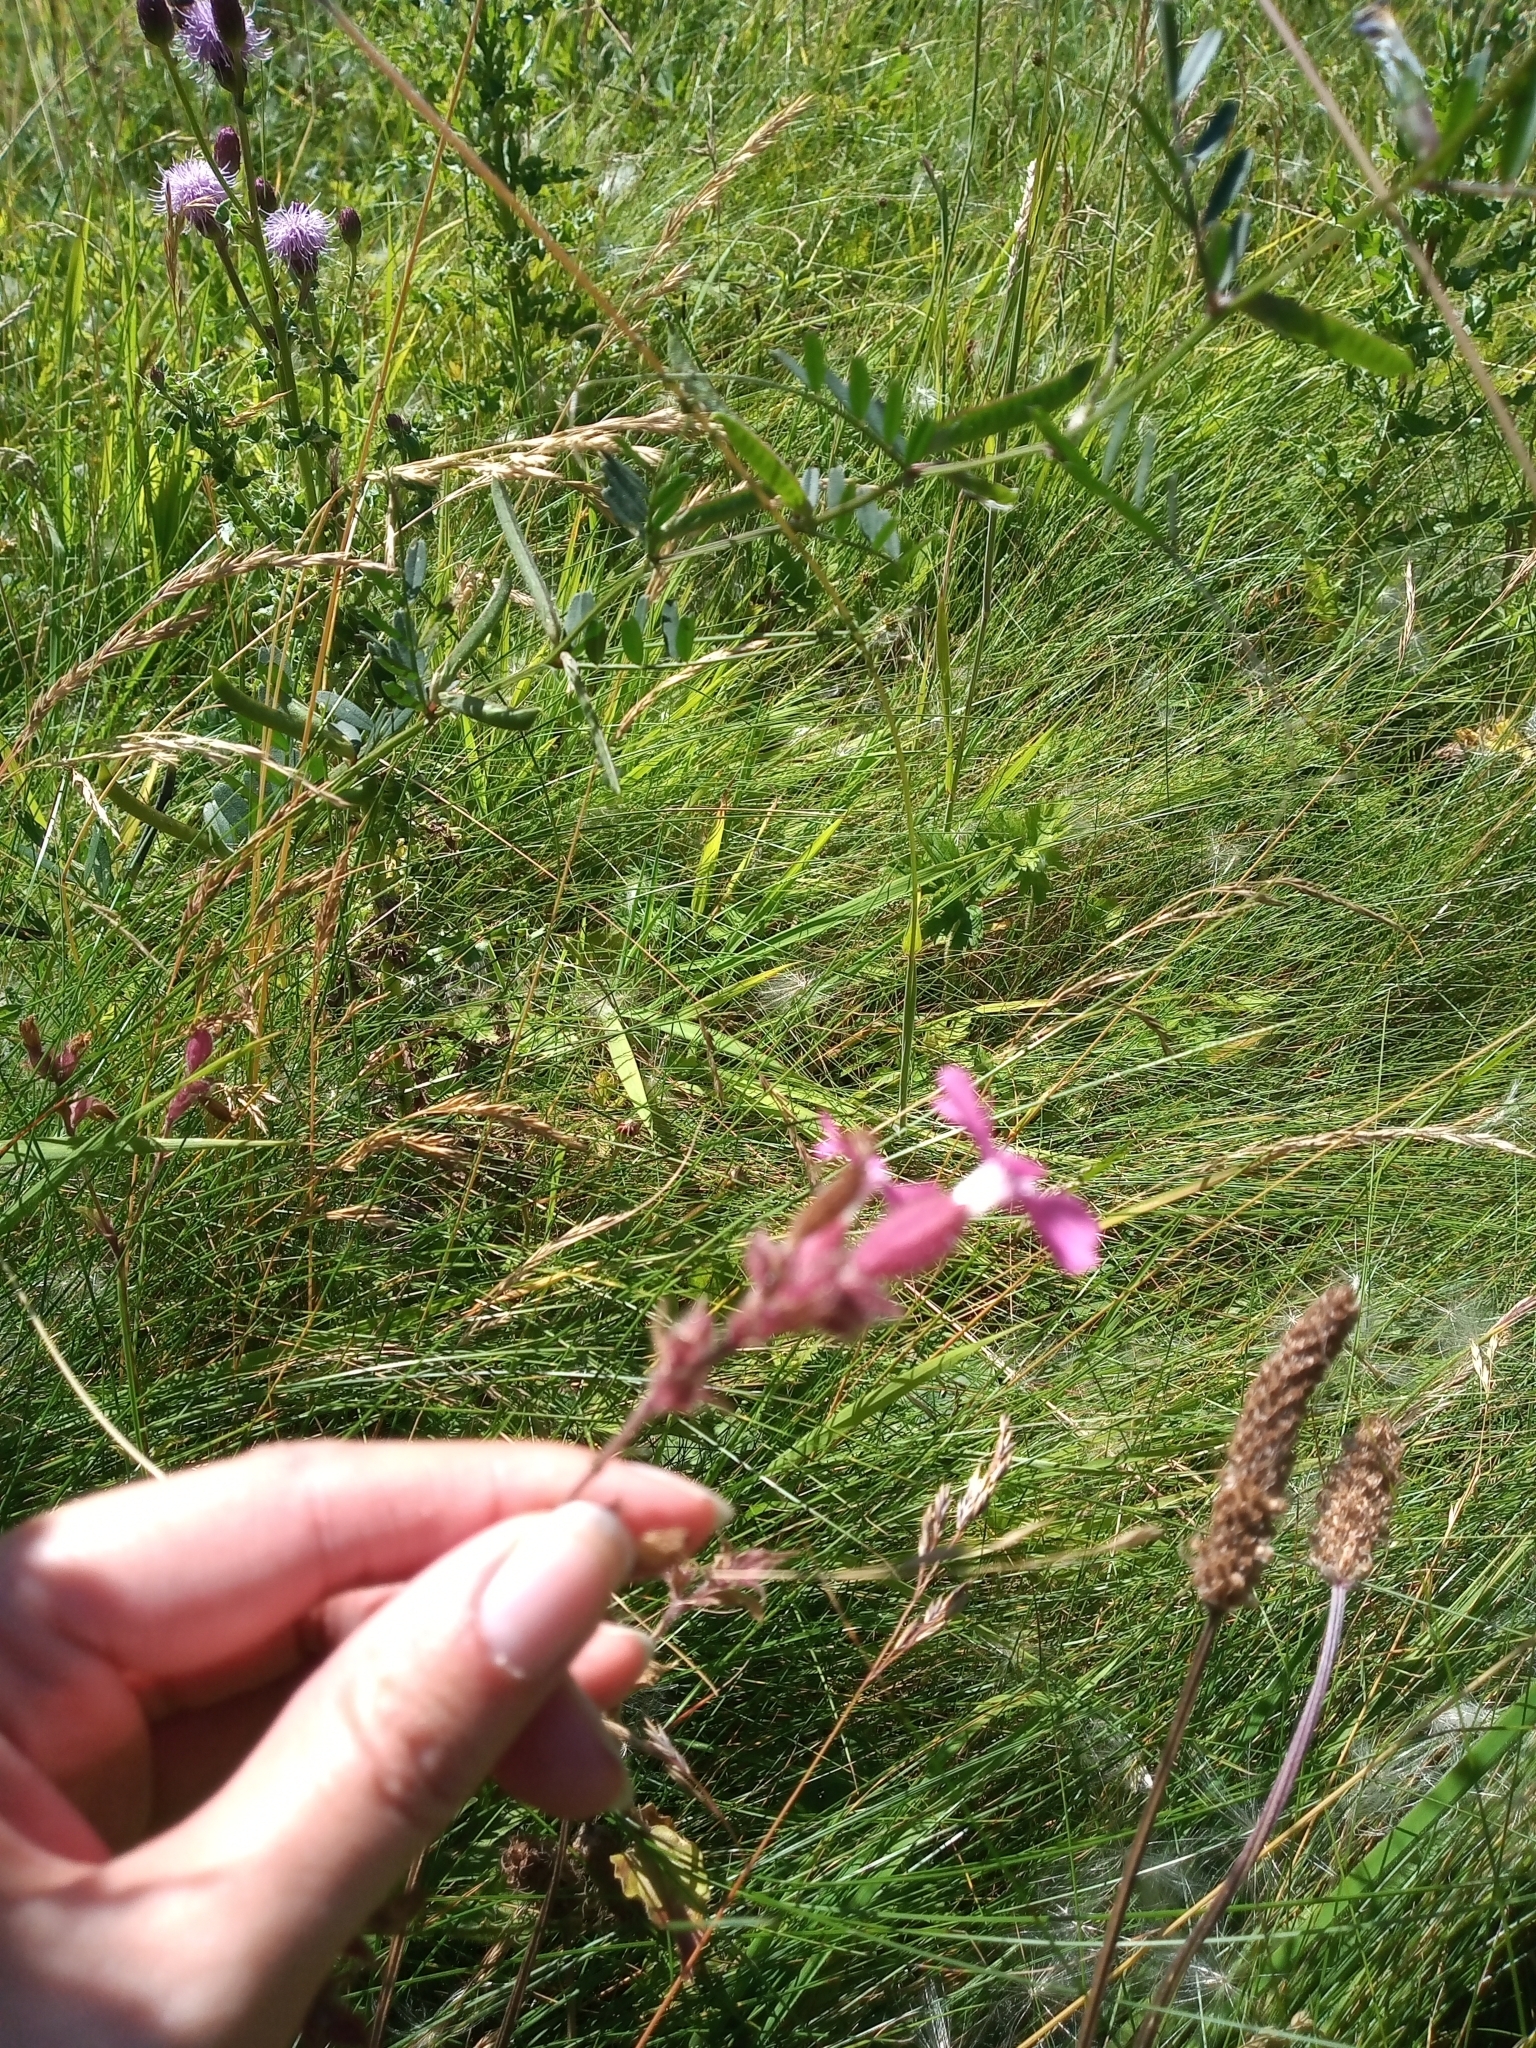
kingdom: Plantae
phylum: Tracheophyta
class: Magnoliopsida
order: Caryophyllales
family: Caryophyllaceae
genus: Silene
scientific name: Silene dioica
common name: Red campion
